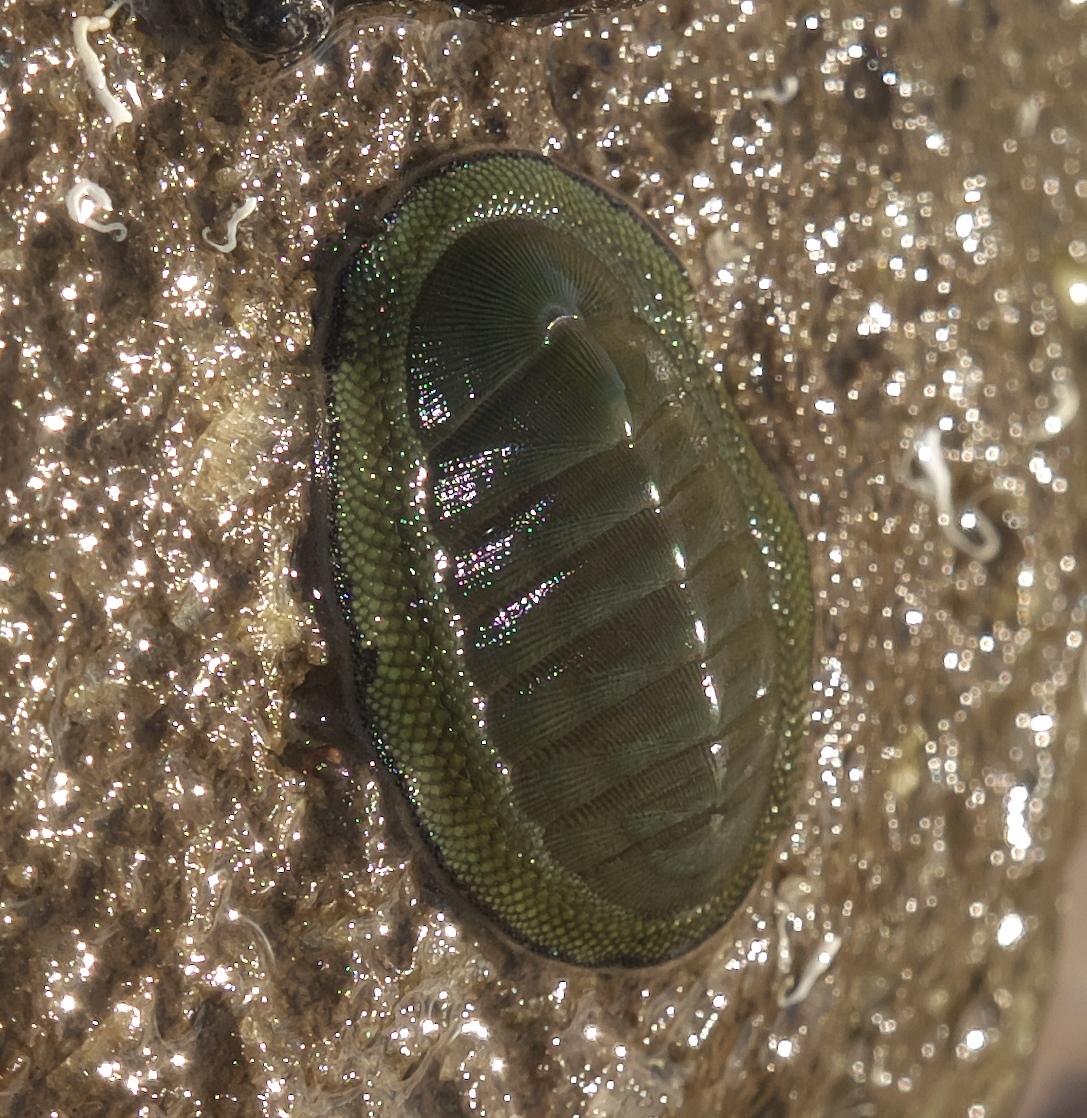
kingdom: Animalia
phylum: Mollusca
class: Polyplacophora
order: Chitonida
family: Chitonidae
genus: Chiton
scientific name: Chiton glaucus
